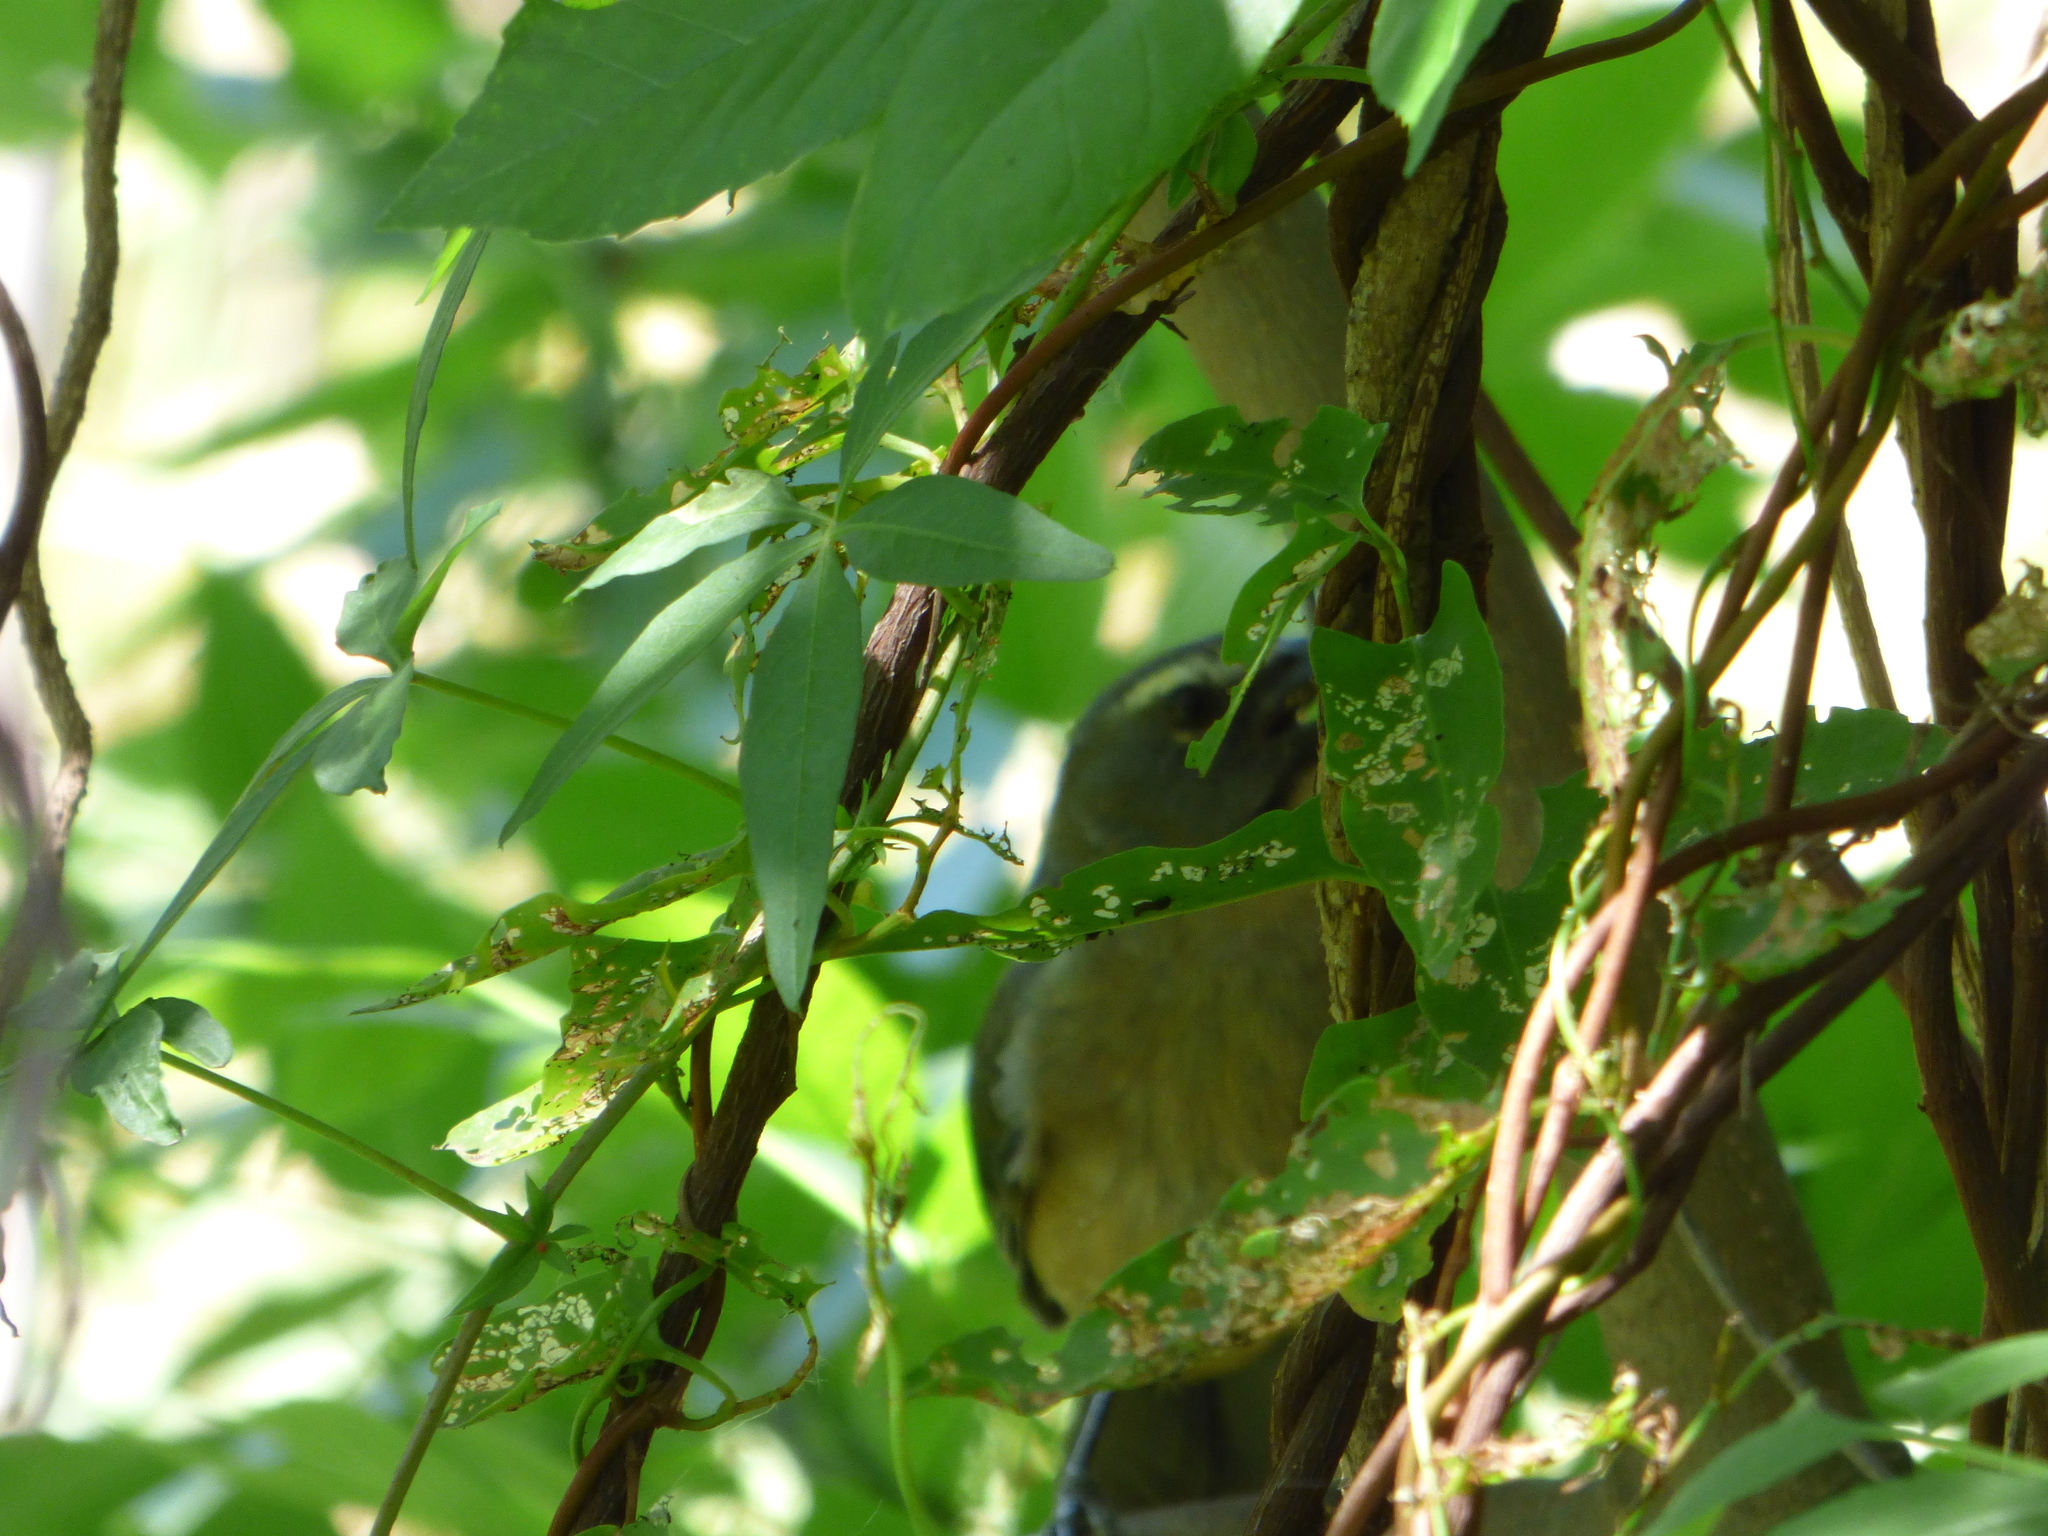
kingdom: Animalia
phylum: Chordata
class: Aves
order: Passeriformes
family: Thraupidae
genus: Saltator
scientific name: Saltator coerulescens
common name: Grayish saltator
